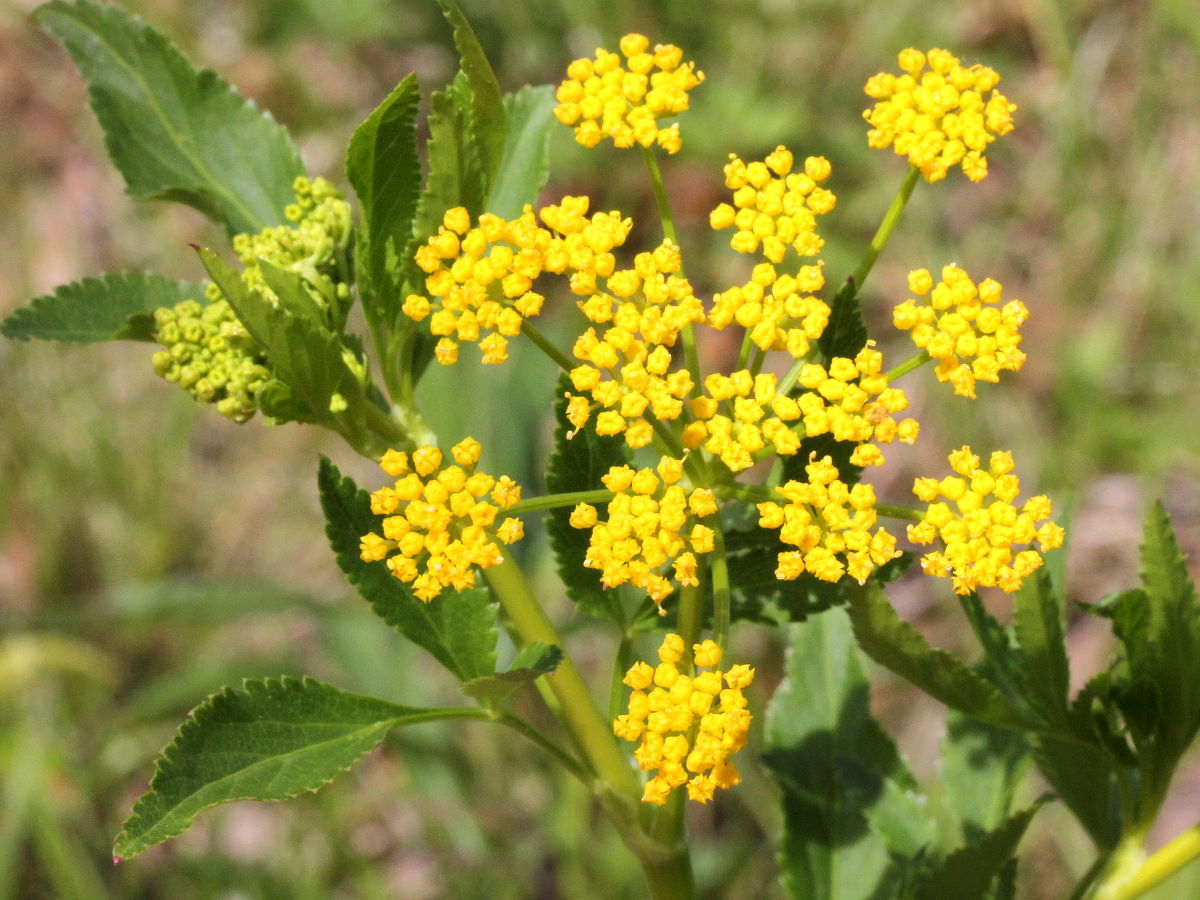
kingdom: Plantae
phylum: Tracheophyta
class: Magnoliopsida
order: Apiales
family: Apiaceae
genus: Zizia
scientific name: Zizia aurea
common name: Golden alexanders
